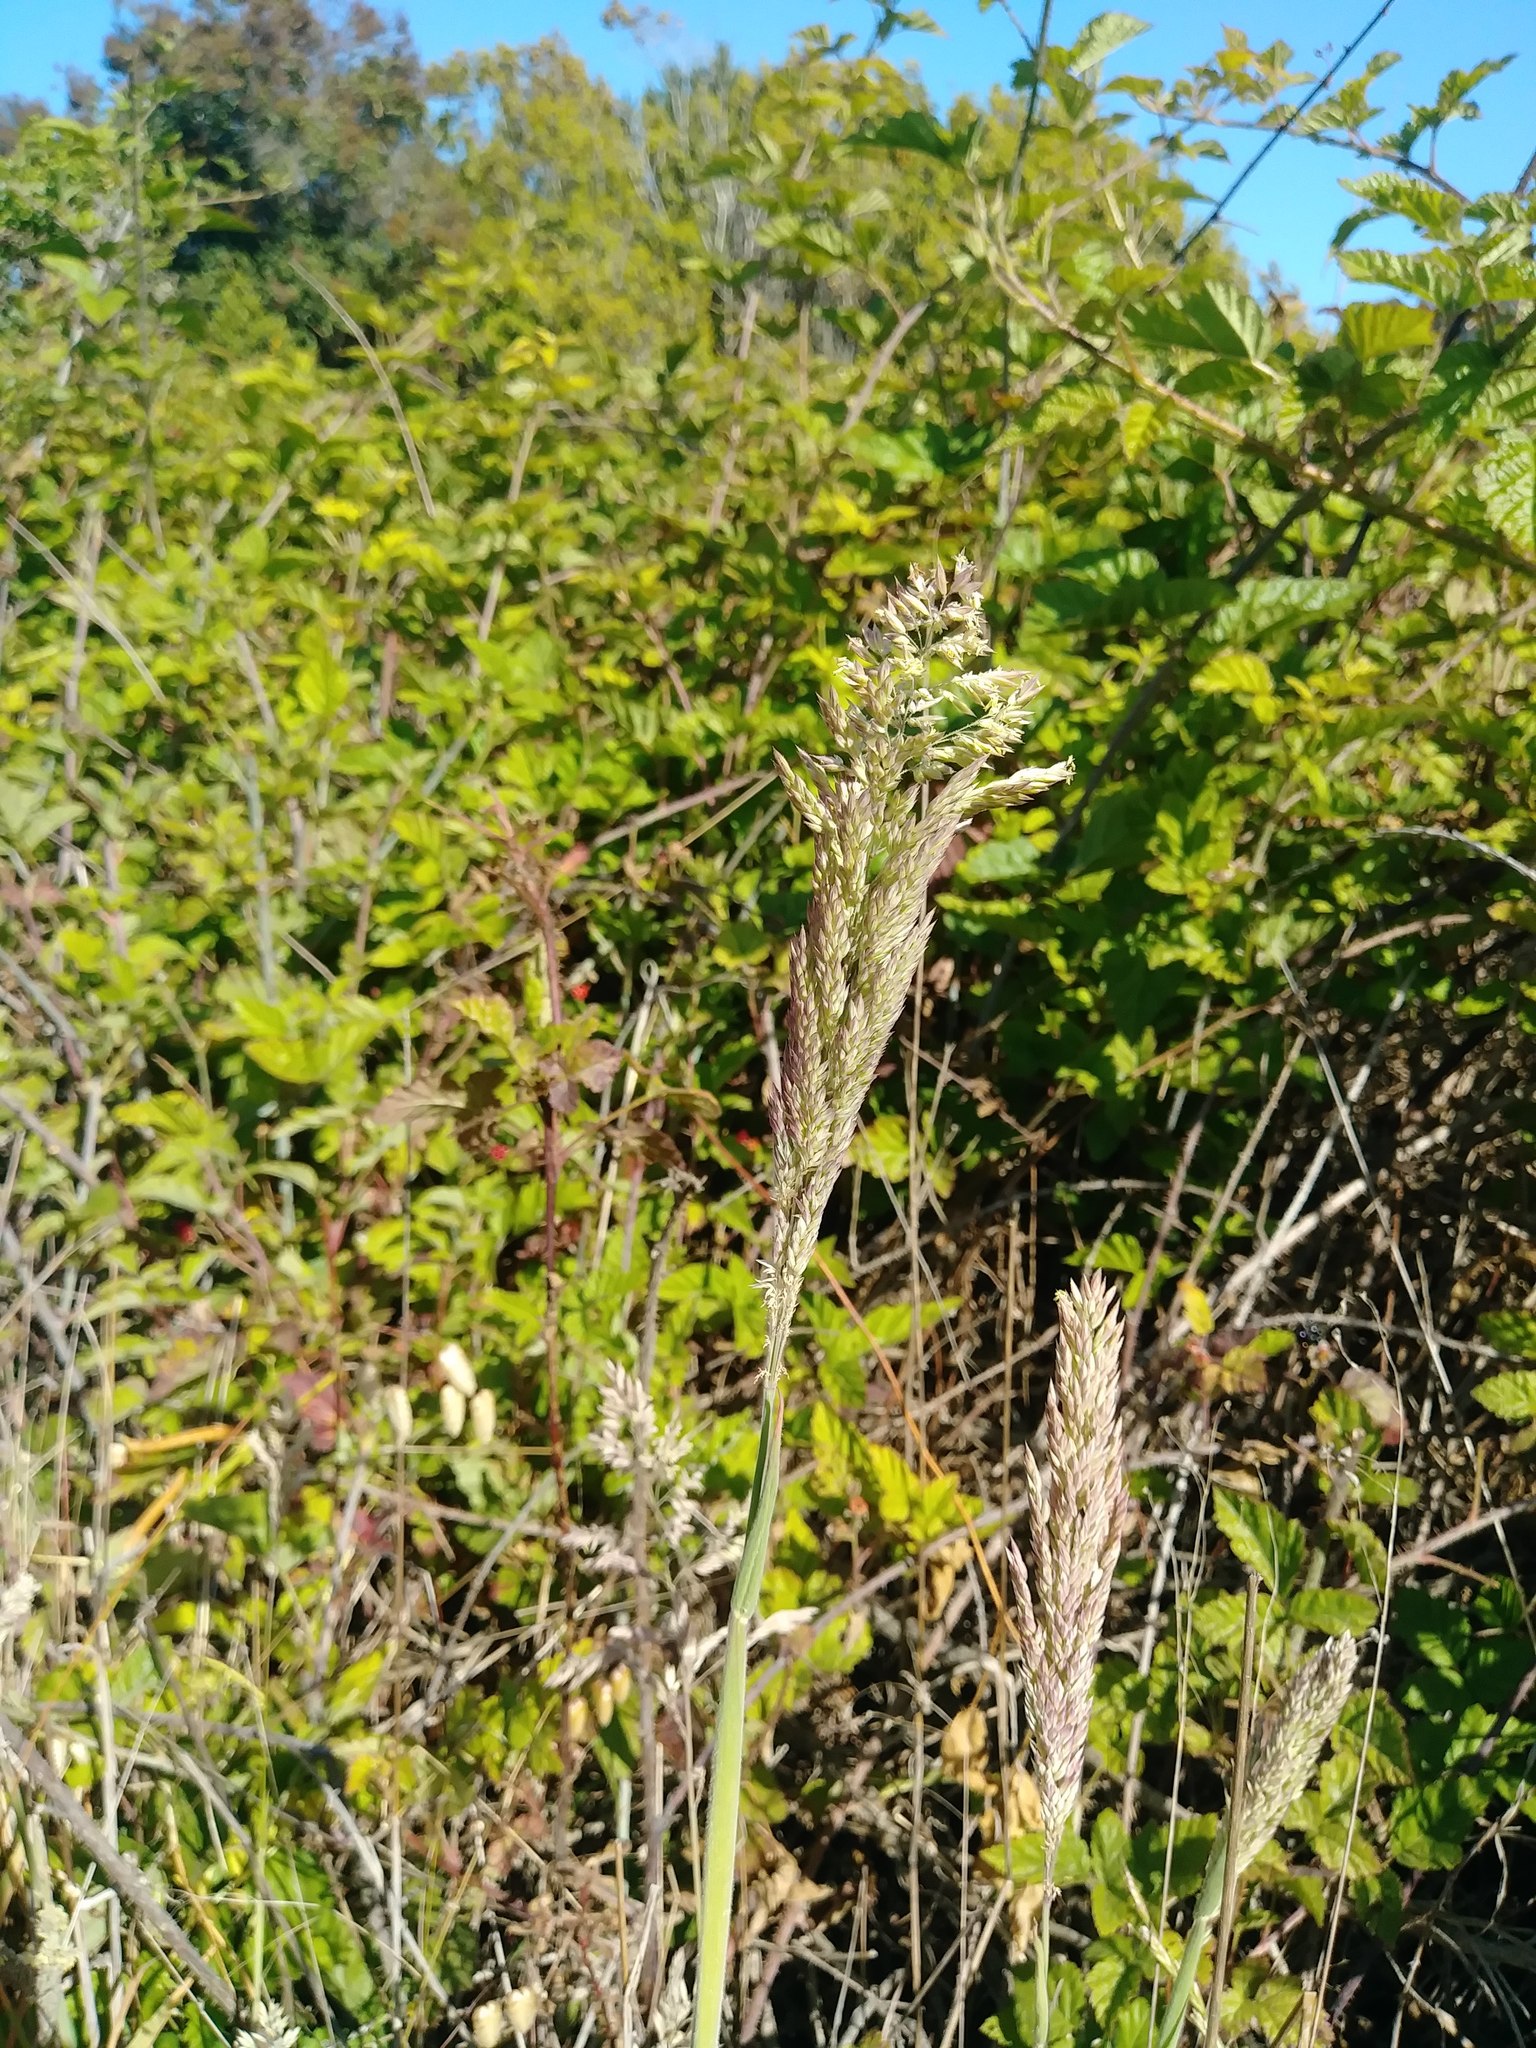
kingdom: Plantae
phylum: Tracheophyta
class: Liliopsida
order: Poales
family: Poaceae
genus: Holcus
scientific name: Holcus lanatus
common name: Yorkshire-fog
